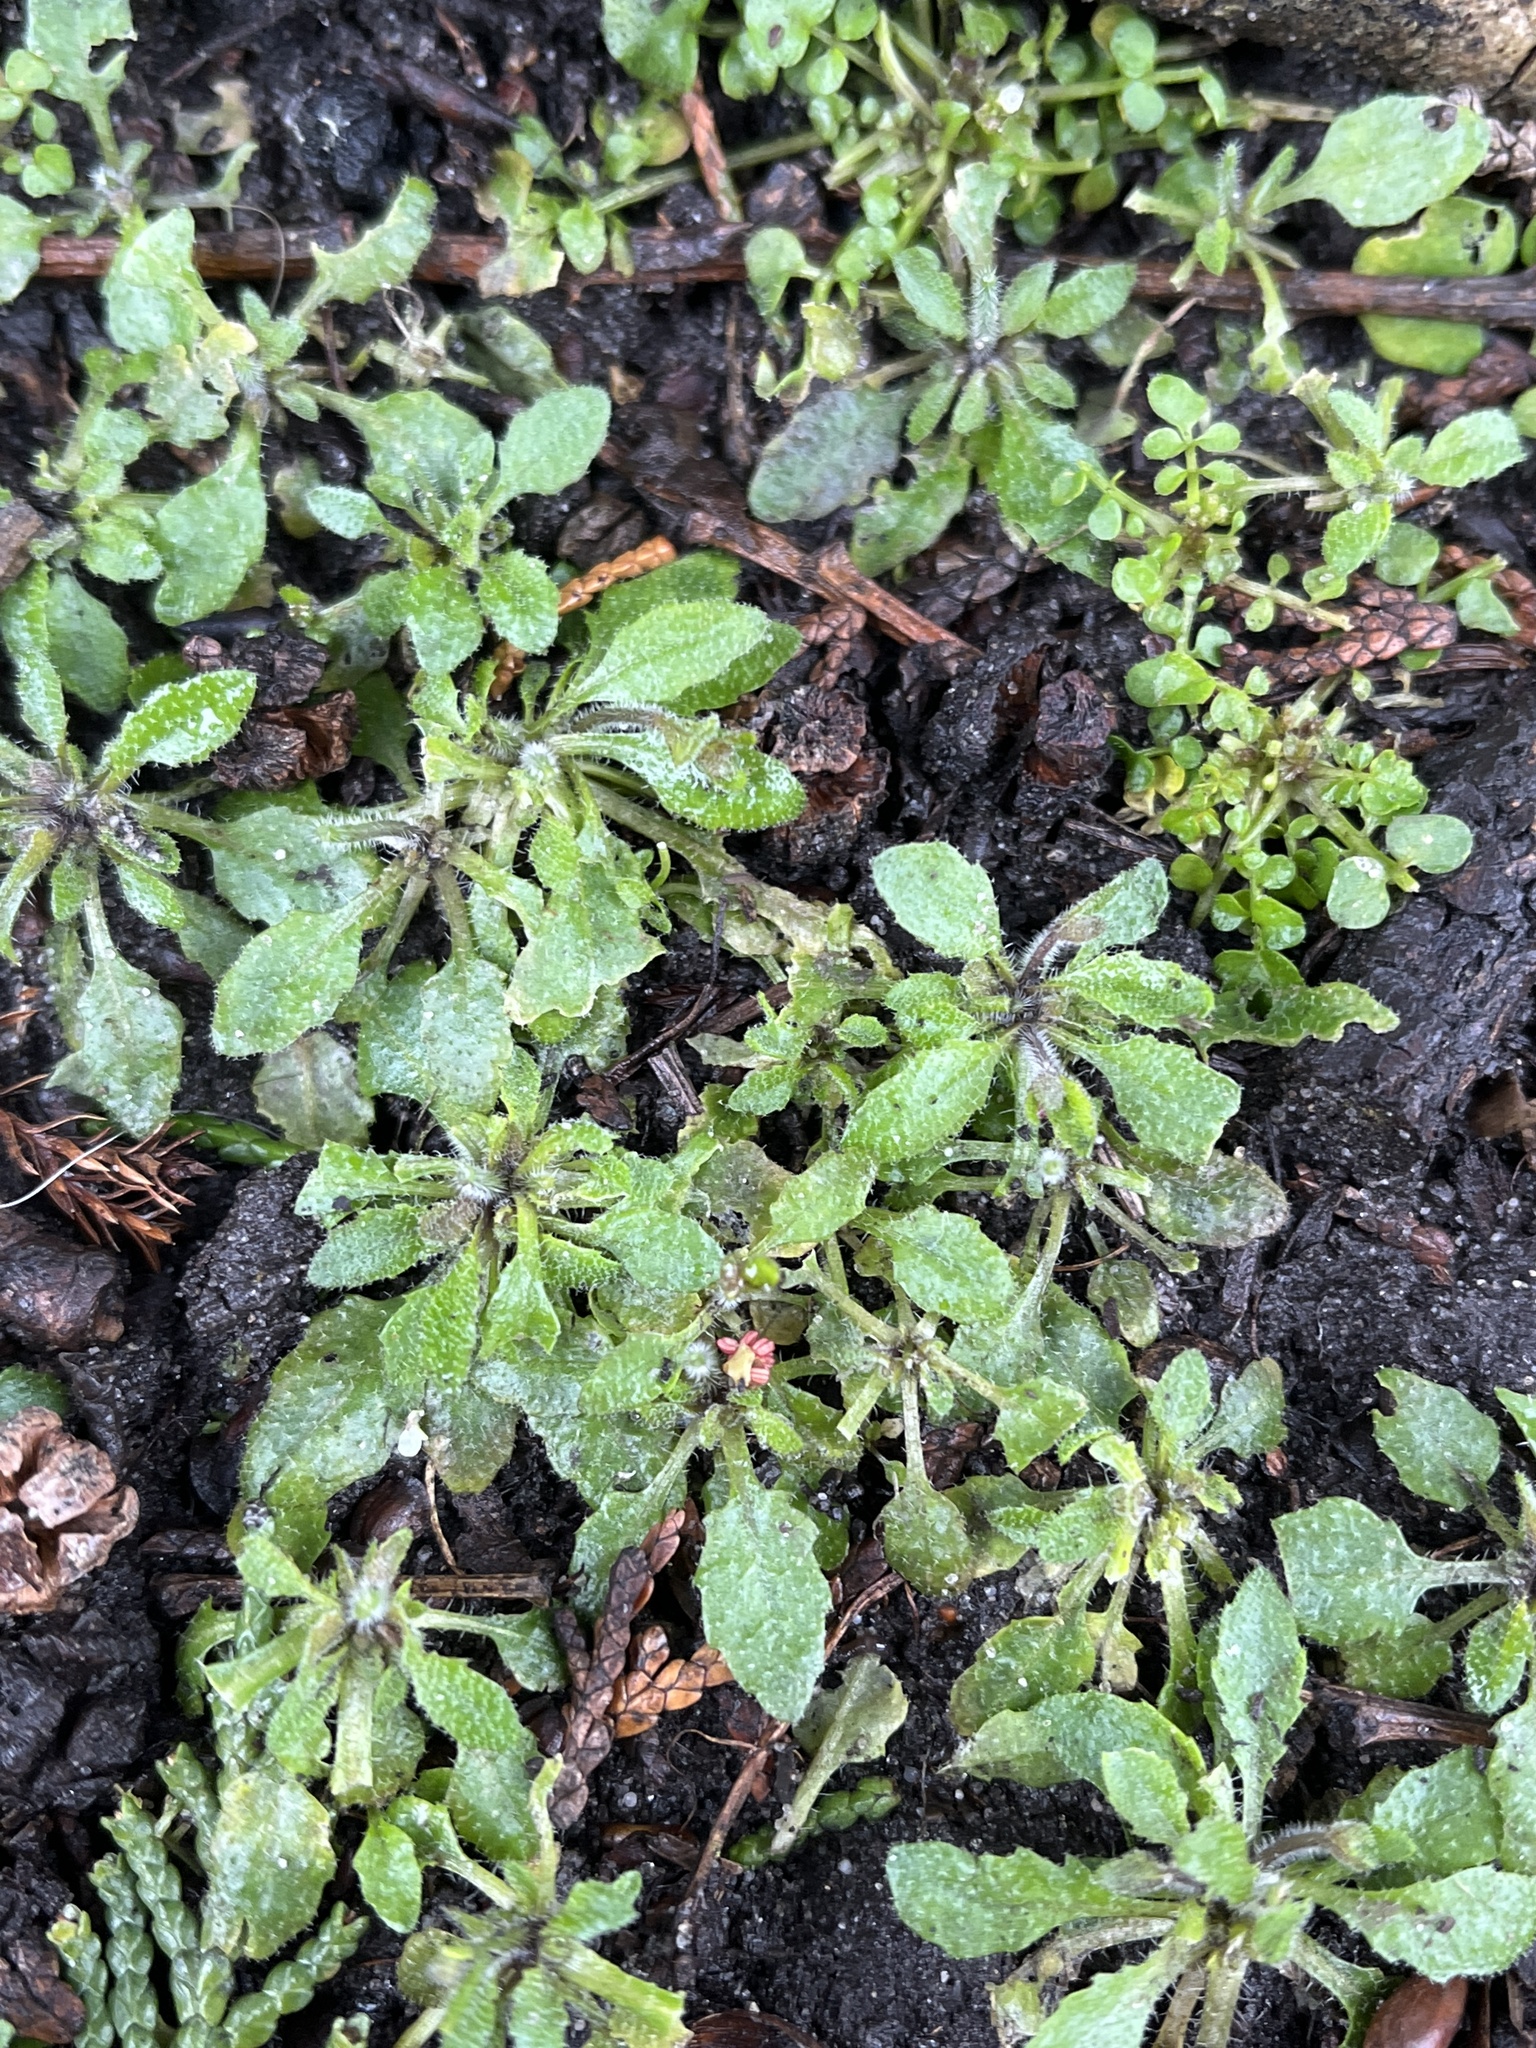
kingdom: Plantae
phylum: Tracheophyta
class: Magnoliopsida
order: Brassicales
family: Brassicaceae
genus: Arabidopsis
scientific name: Arabidopsis thaliana
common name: Thale cress
